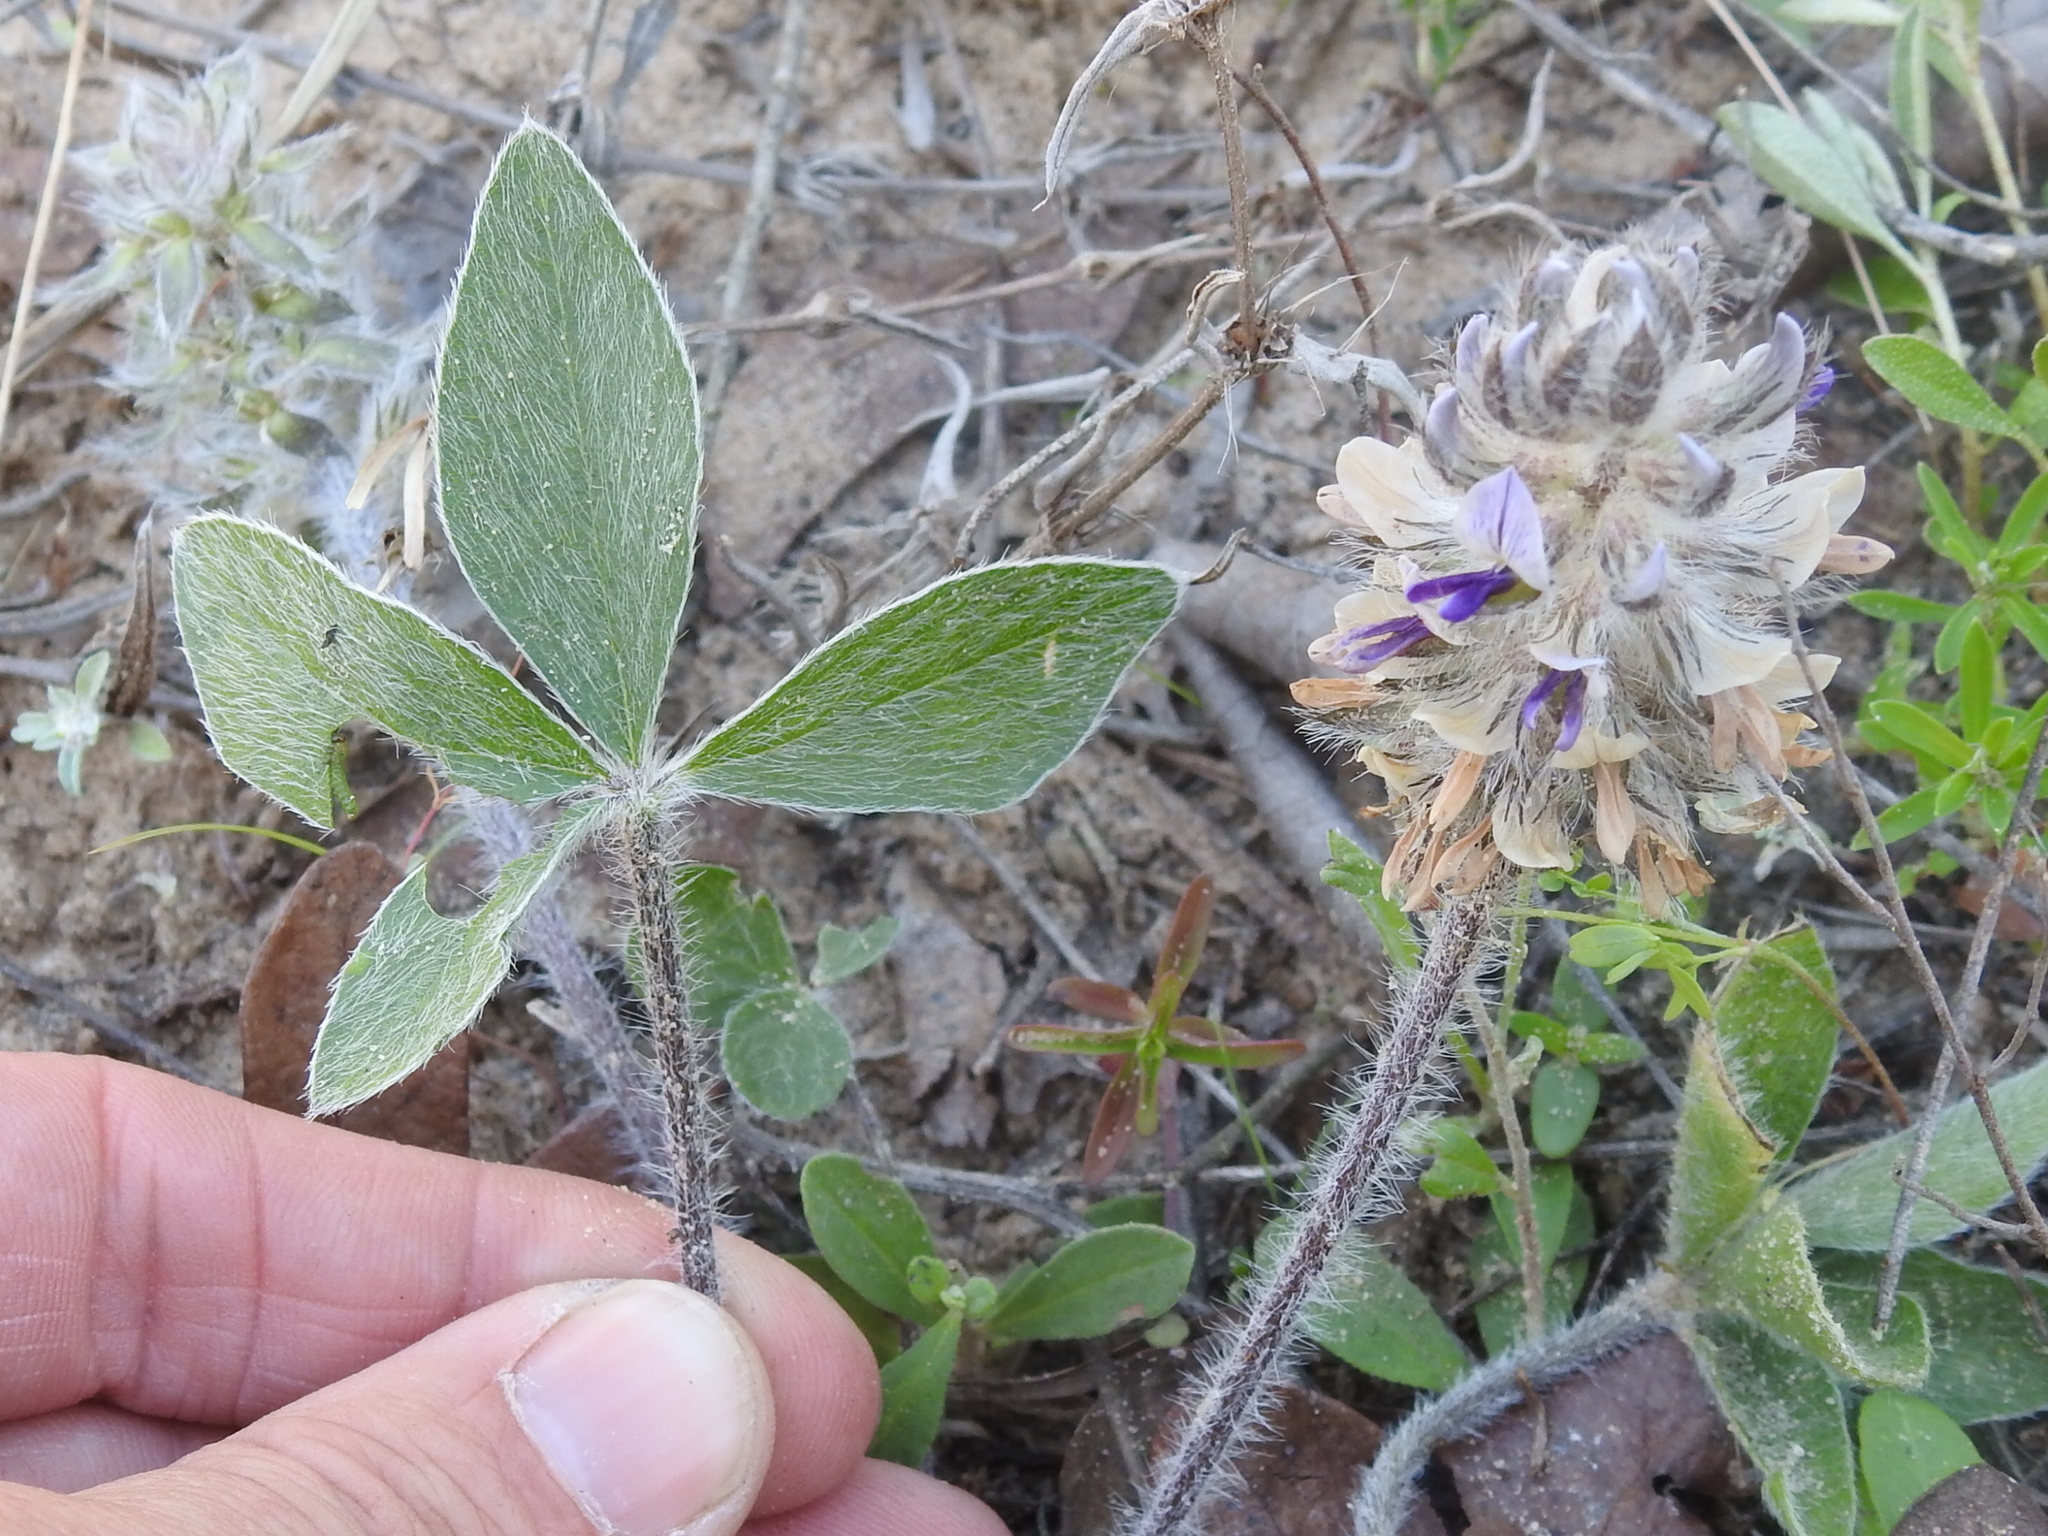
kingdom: Plantae
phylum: Tracheophyta
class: Magnoliopsida
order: Fabales
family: Fabaceae
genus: Pediomelum
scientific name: Pediomelum hypogaeum
